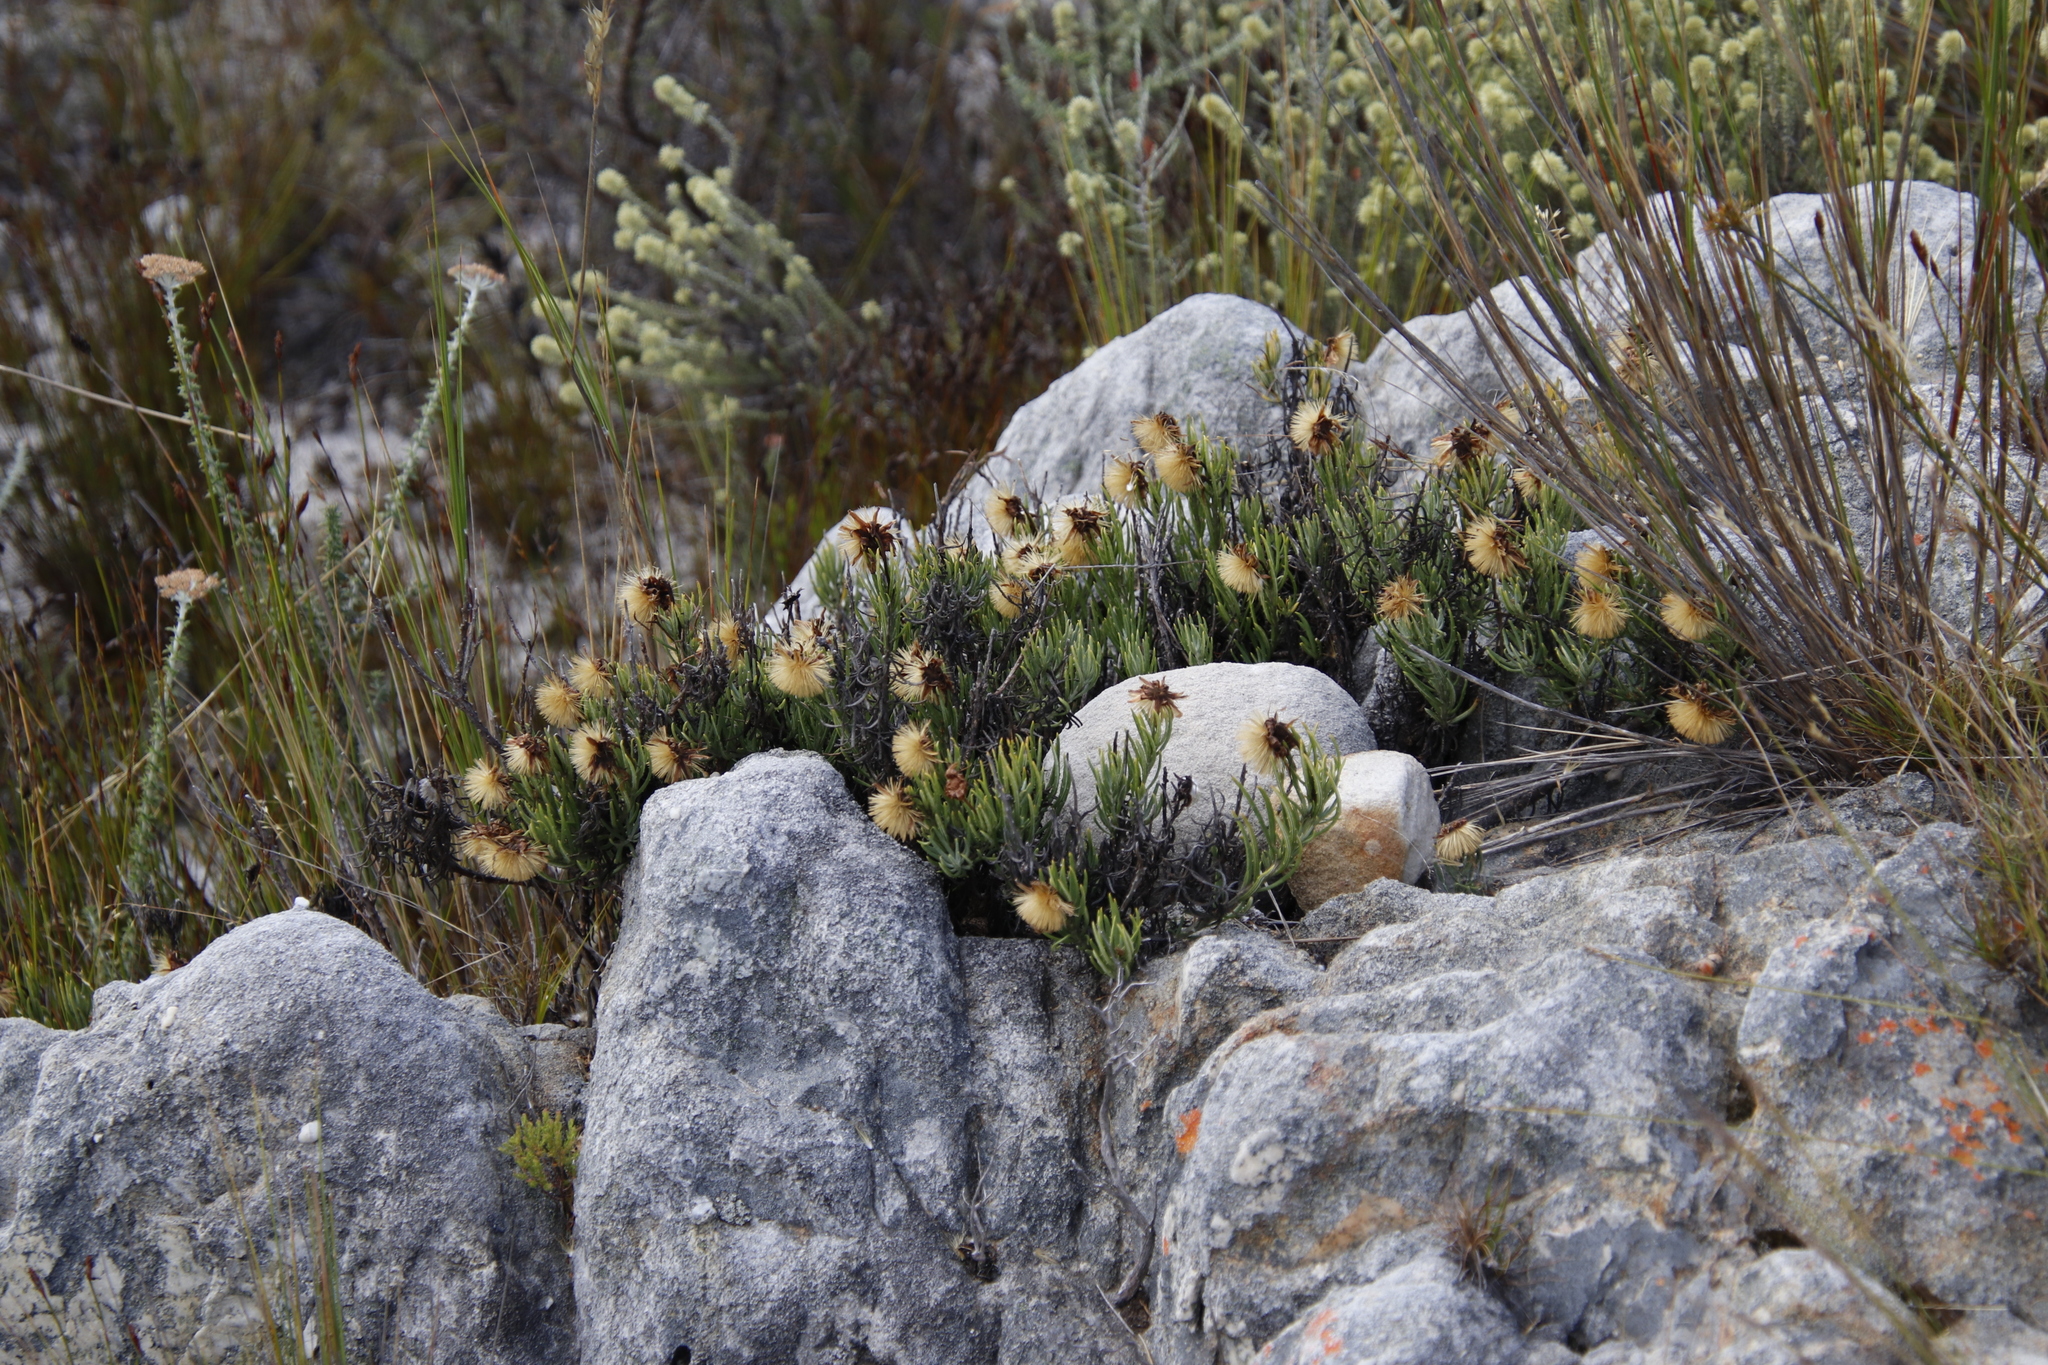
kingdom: Plantae
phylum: Tracheophyta
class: Magnoliopsida
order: Asterales
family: Asteraceae
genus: Heterolepis
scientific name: Heterolepis aliena
